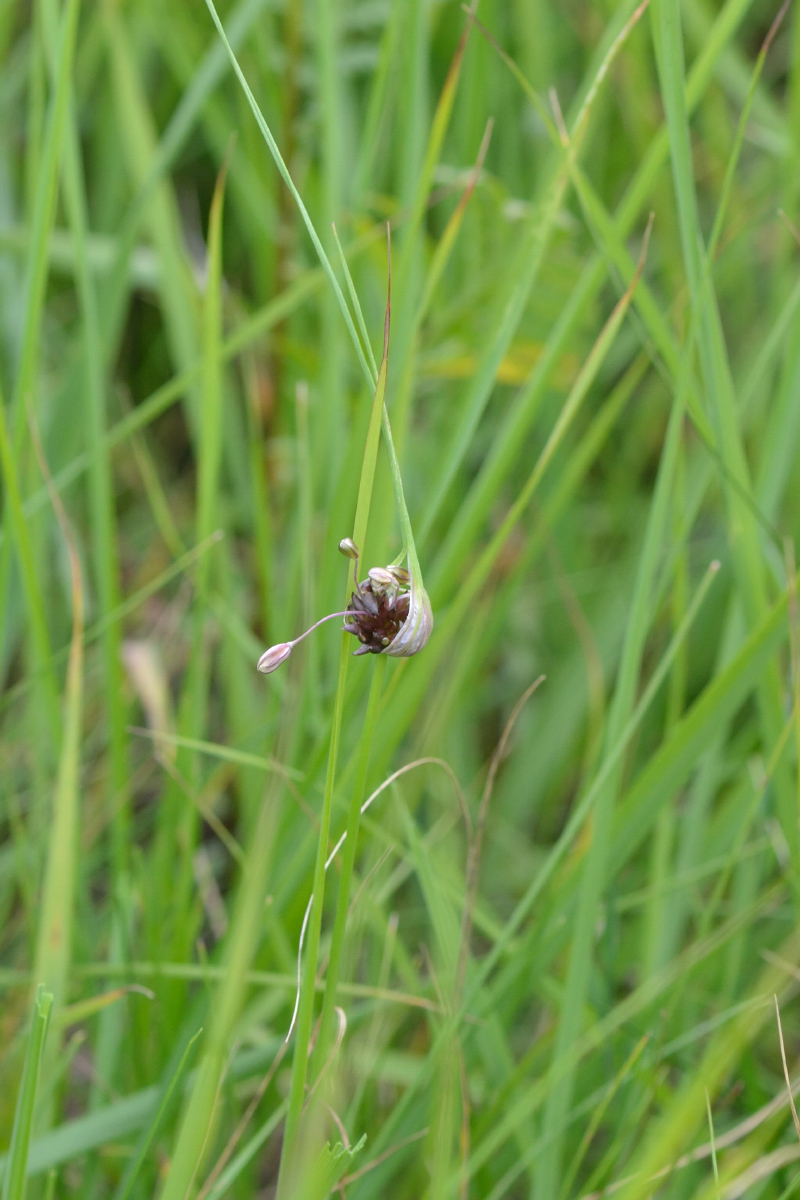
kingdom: Plantae
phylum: Tracheophyta
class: Liliopsida
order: Asparagales
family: Amaryllidaceae
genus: Allium
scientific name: Allium oleraceum
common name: Field garlic
